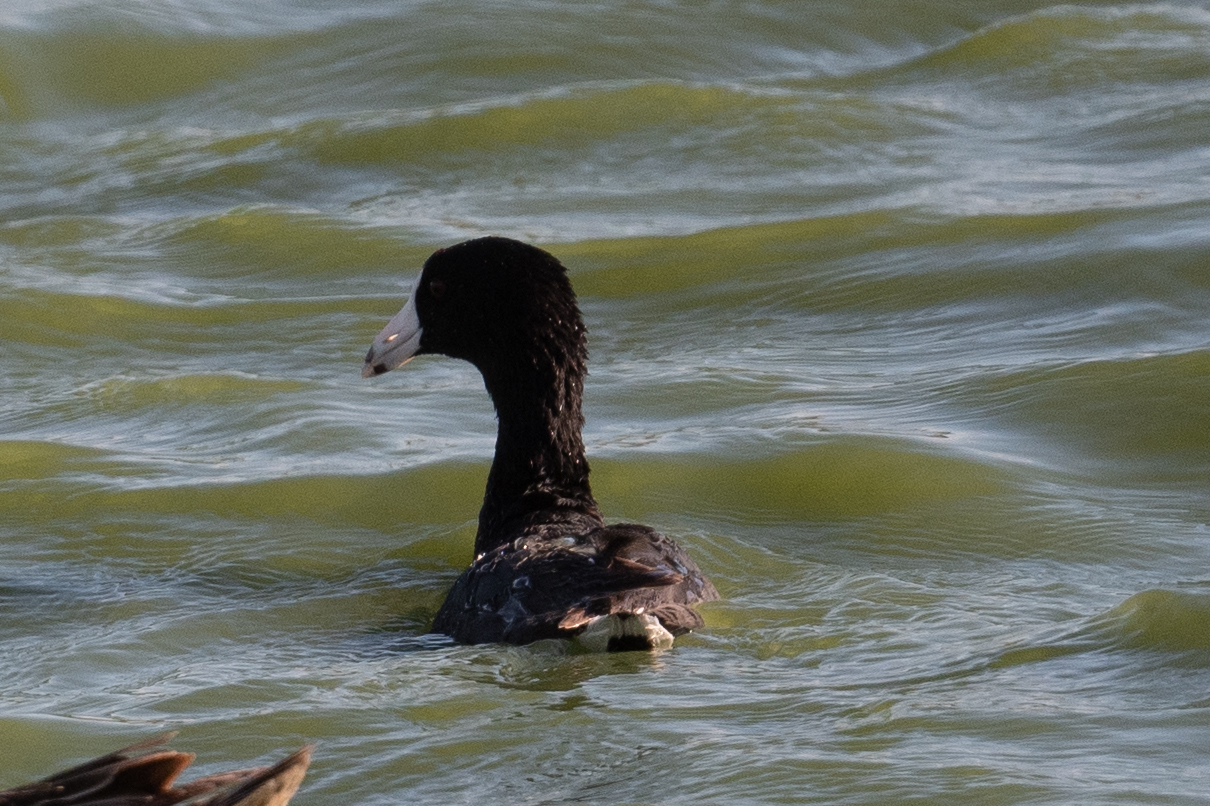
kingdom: Animalia
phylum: Chordata
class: Aves
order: Gruiformes
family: Rallidae
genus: Fulica
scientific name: Fulica americana
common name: American coot
